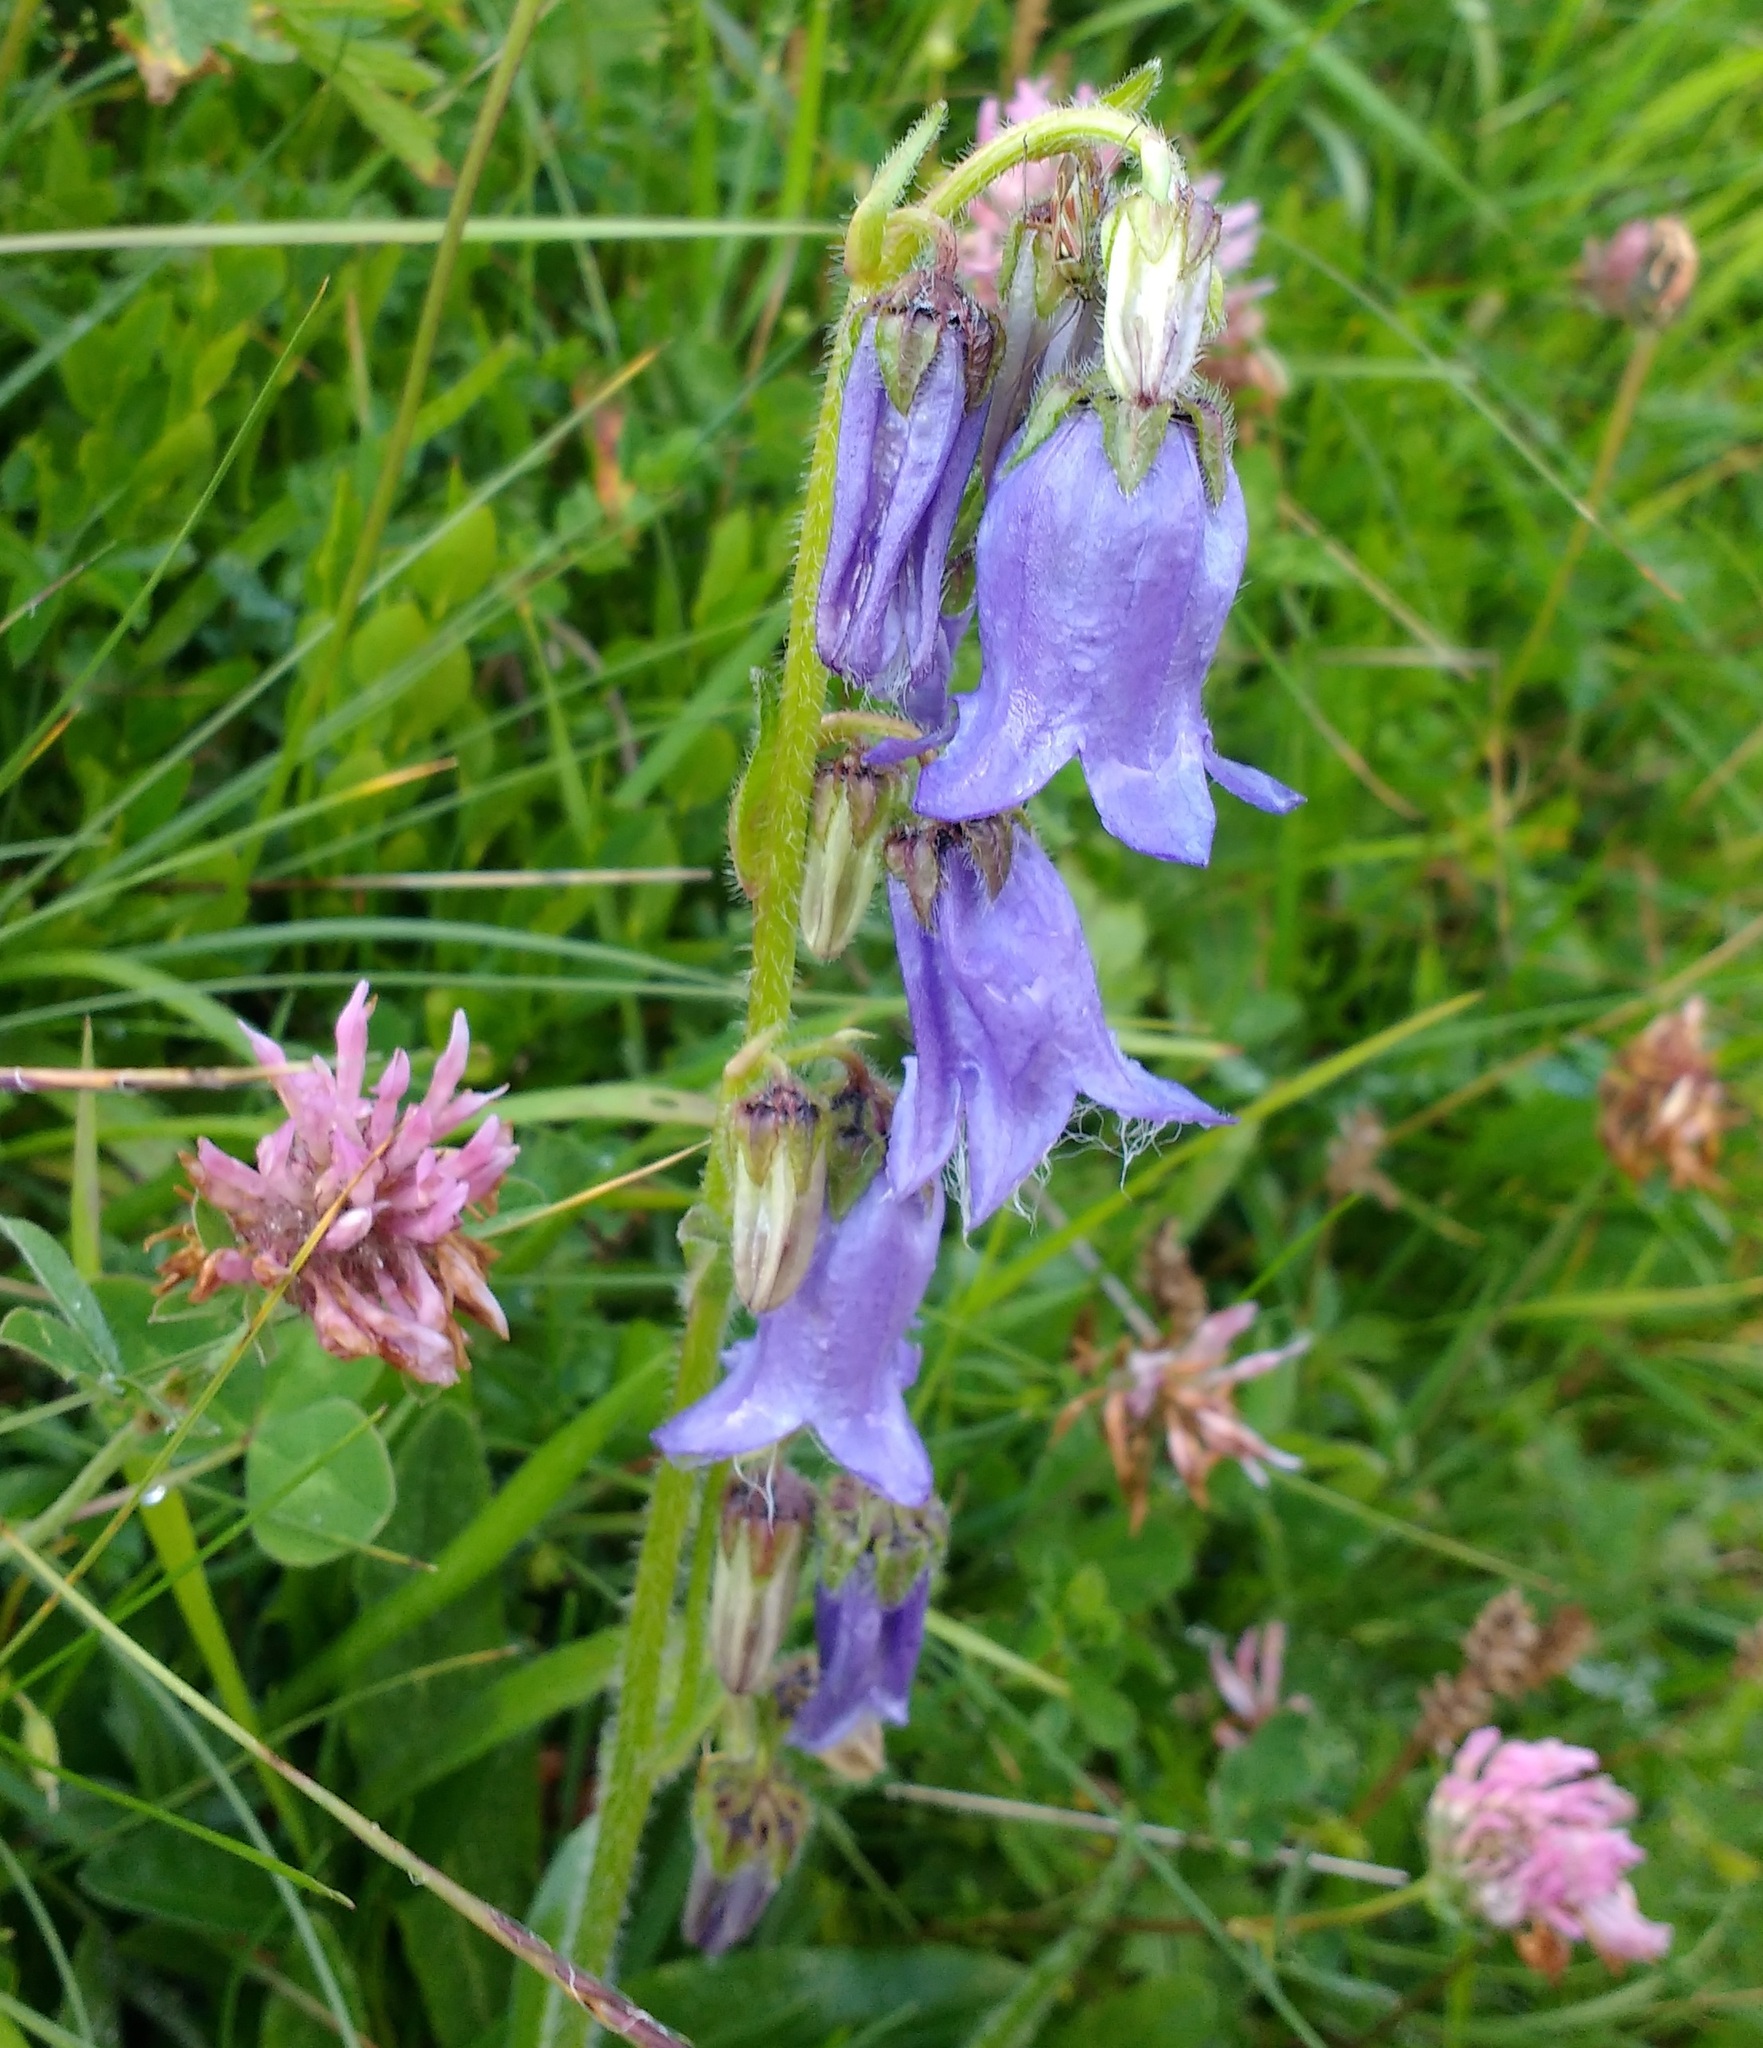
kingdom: Plantae
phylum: Tracheophyta
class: Magnoliopsida
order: Asterales
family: Campanulaceae
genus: Campanula
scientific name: Campanula barbata
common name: Bearded bellflower
